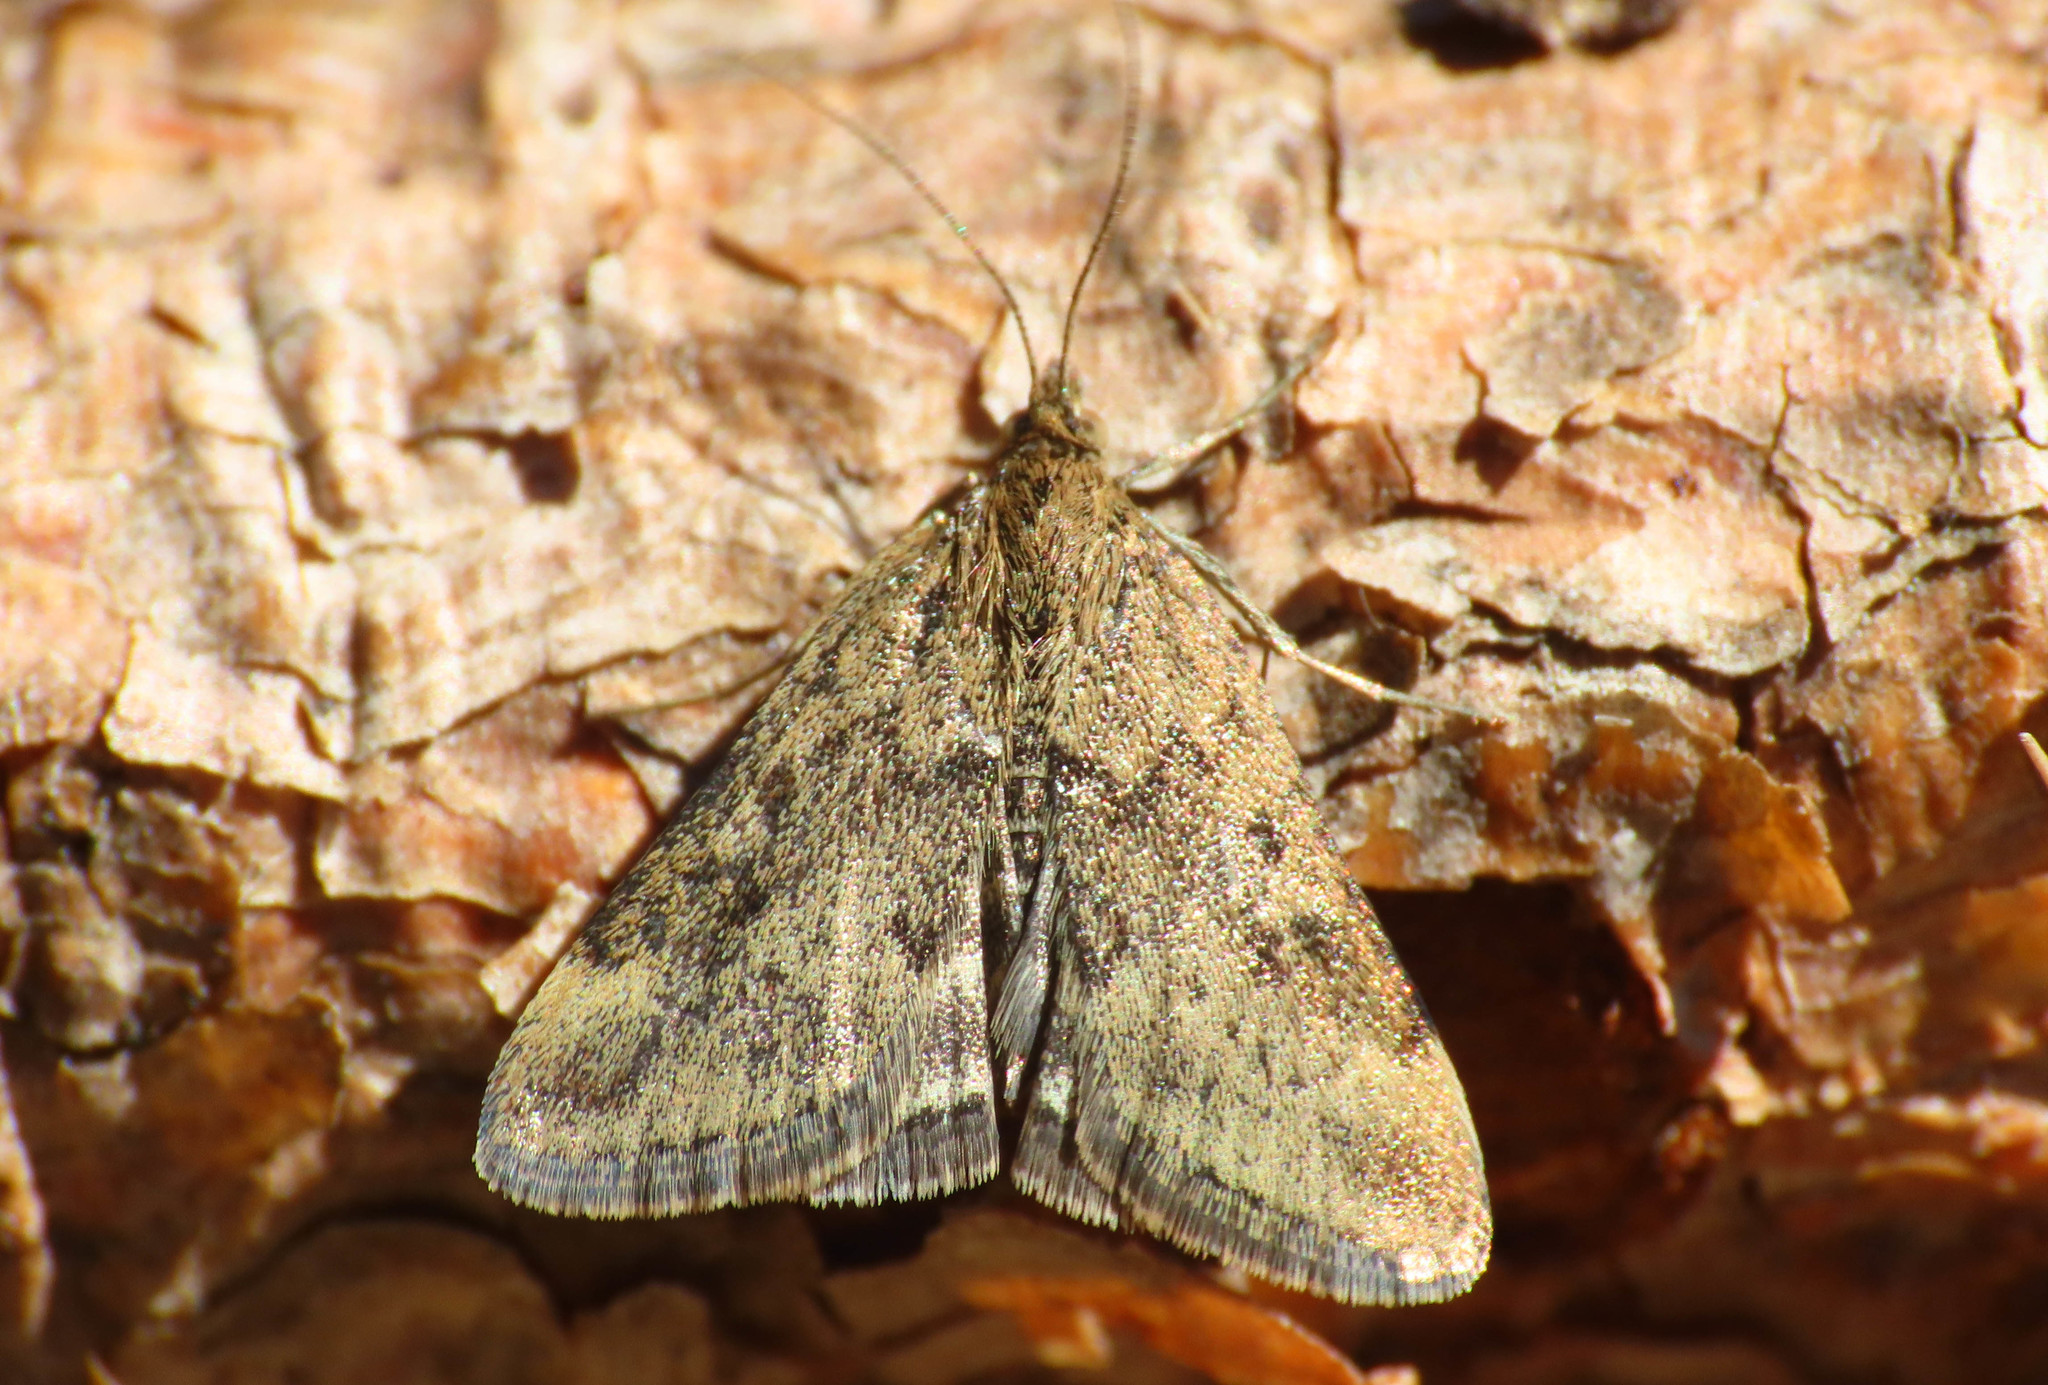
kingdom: Animalia
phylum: Arthropoda
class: Insecta
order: Lepidoptera
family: Crambidae
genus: Pyrausta
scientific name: Pyrausta despicata
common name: Straw-barred pearl
